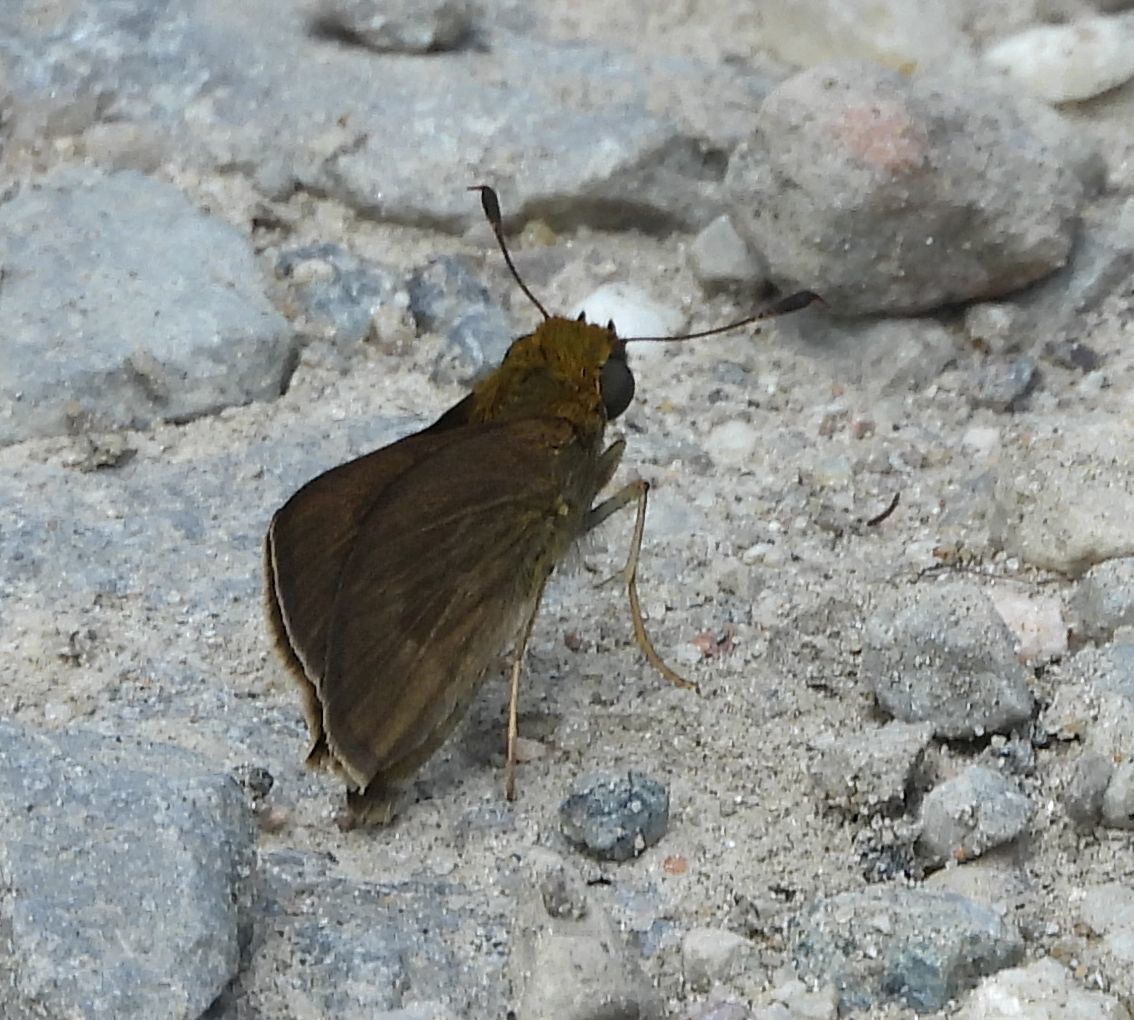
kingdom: Animalia
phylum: Arthropoda
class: Insecta
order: Lepidoptera
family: Hesperiidae
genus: Euphyes
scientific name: Euphyes vestris
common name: Dun skipper
